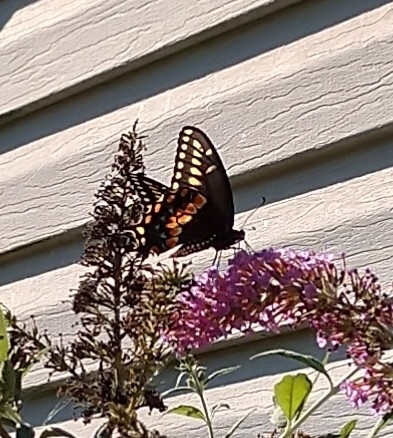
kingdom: Animalia
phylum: Arthropoda
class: Insecta
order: Lepidoptera
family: Papilionidae
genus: Papilio
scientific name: Papilio polyxenes
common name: Black swallowtail
